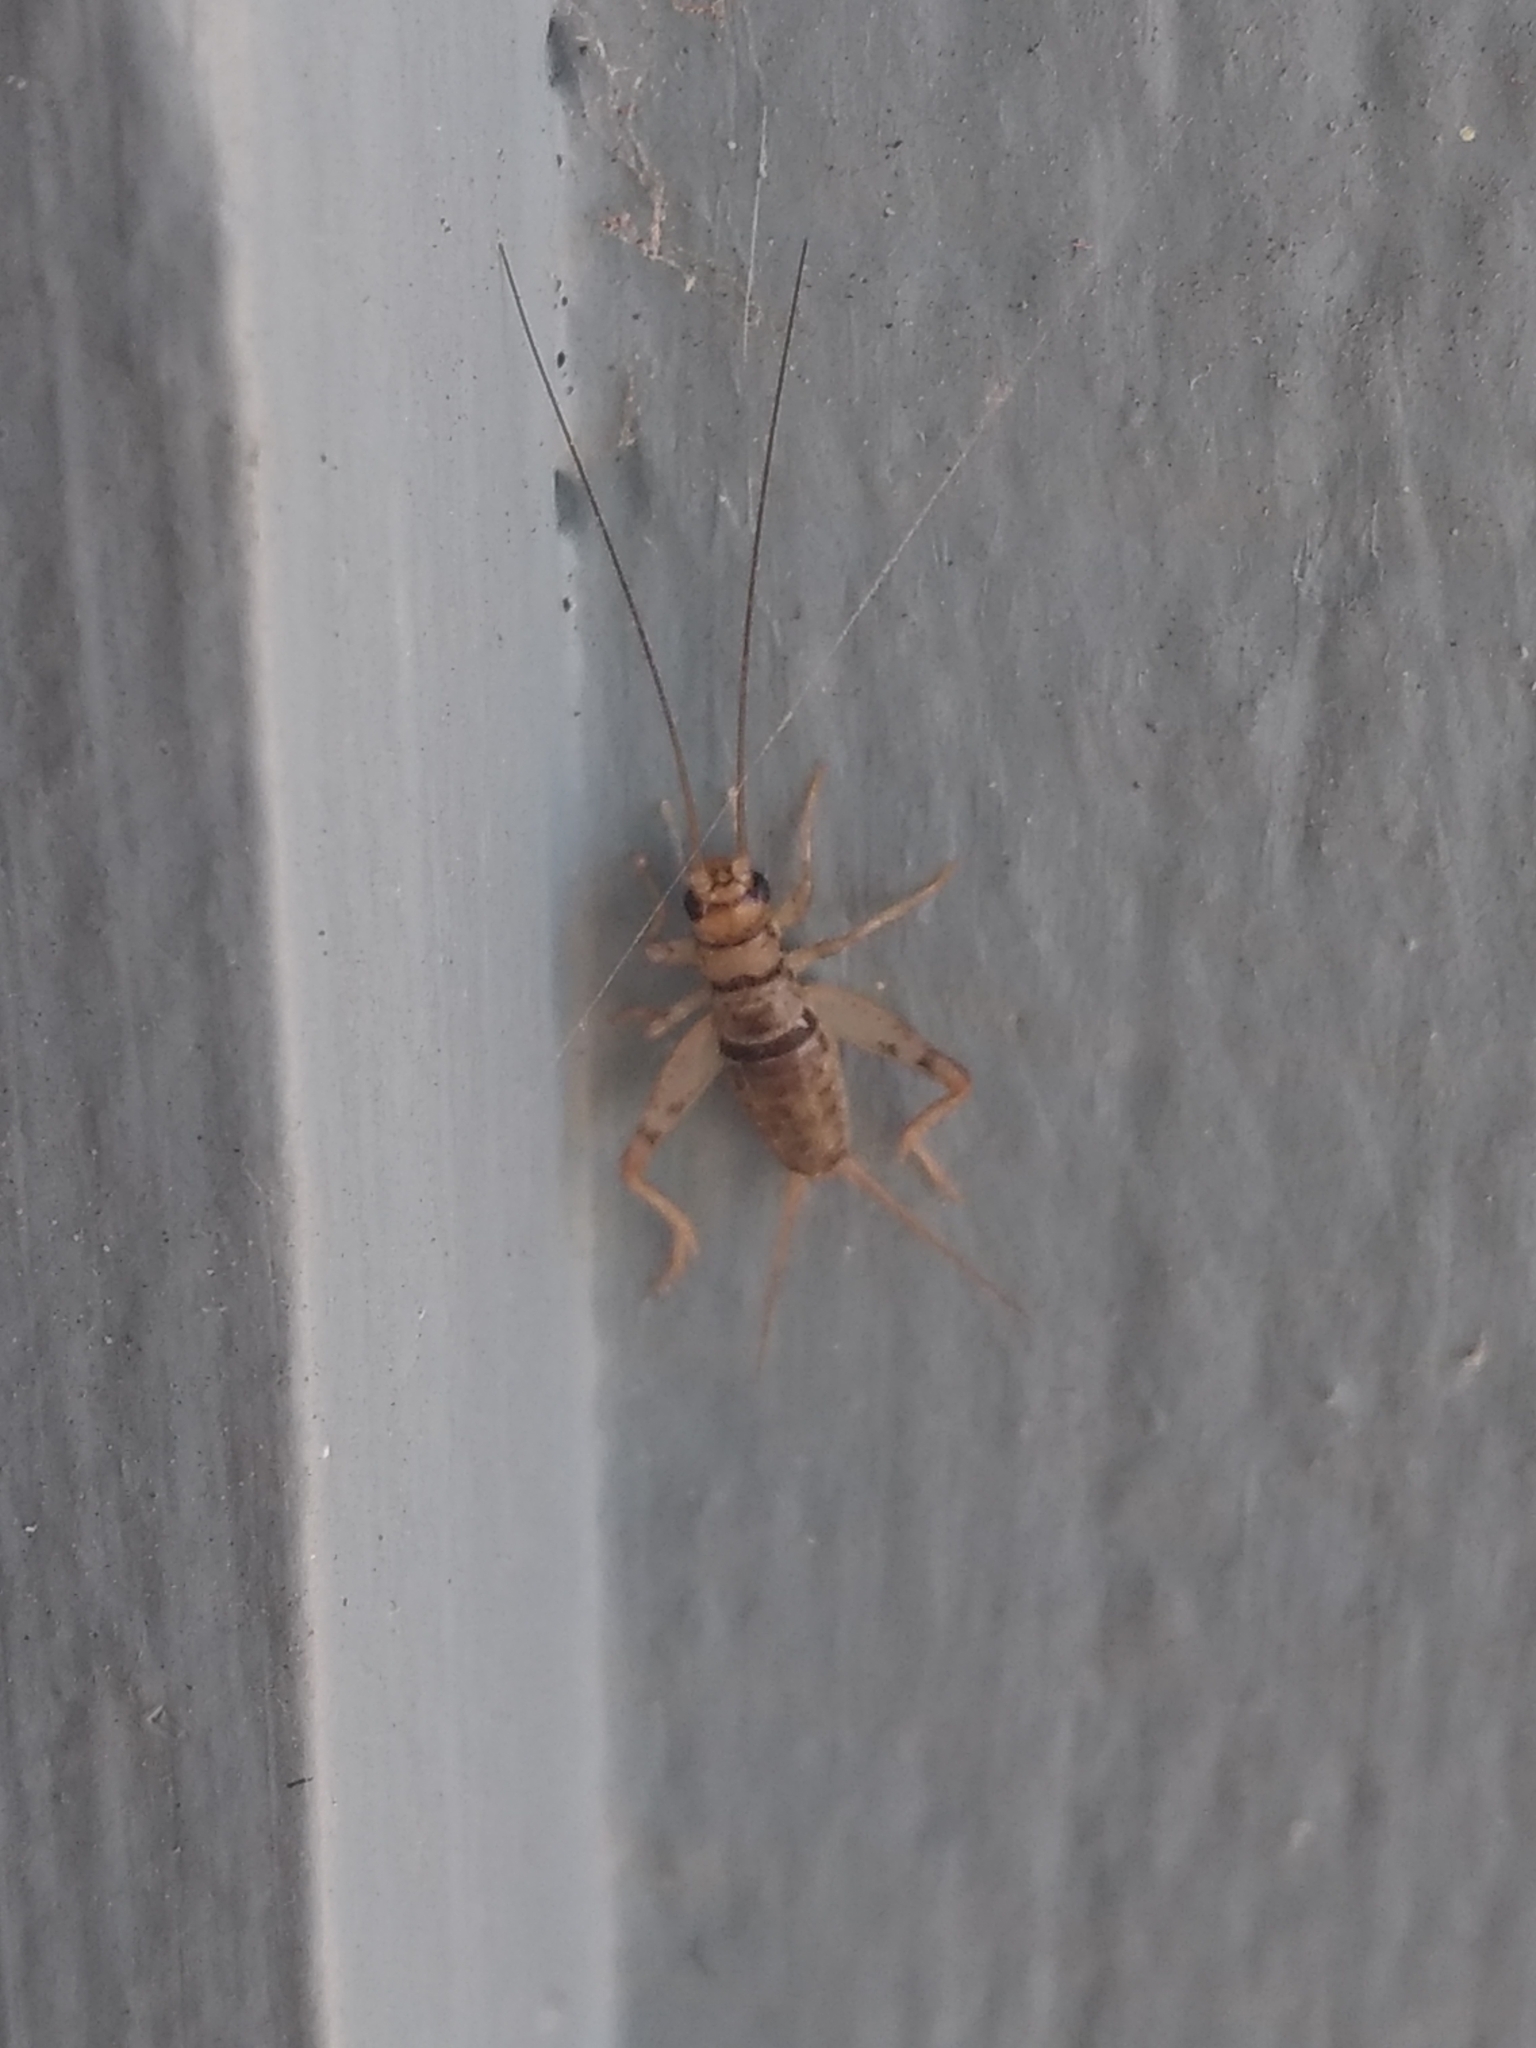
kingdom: Animalia
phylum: Arthropoda
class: Insecta
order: Orthoptera
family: Gryllidae
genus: Gryllodes
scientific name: Gryllodes sigillatus
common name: Tropical house cricket
